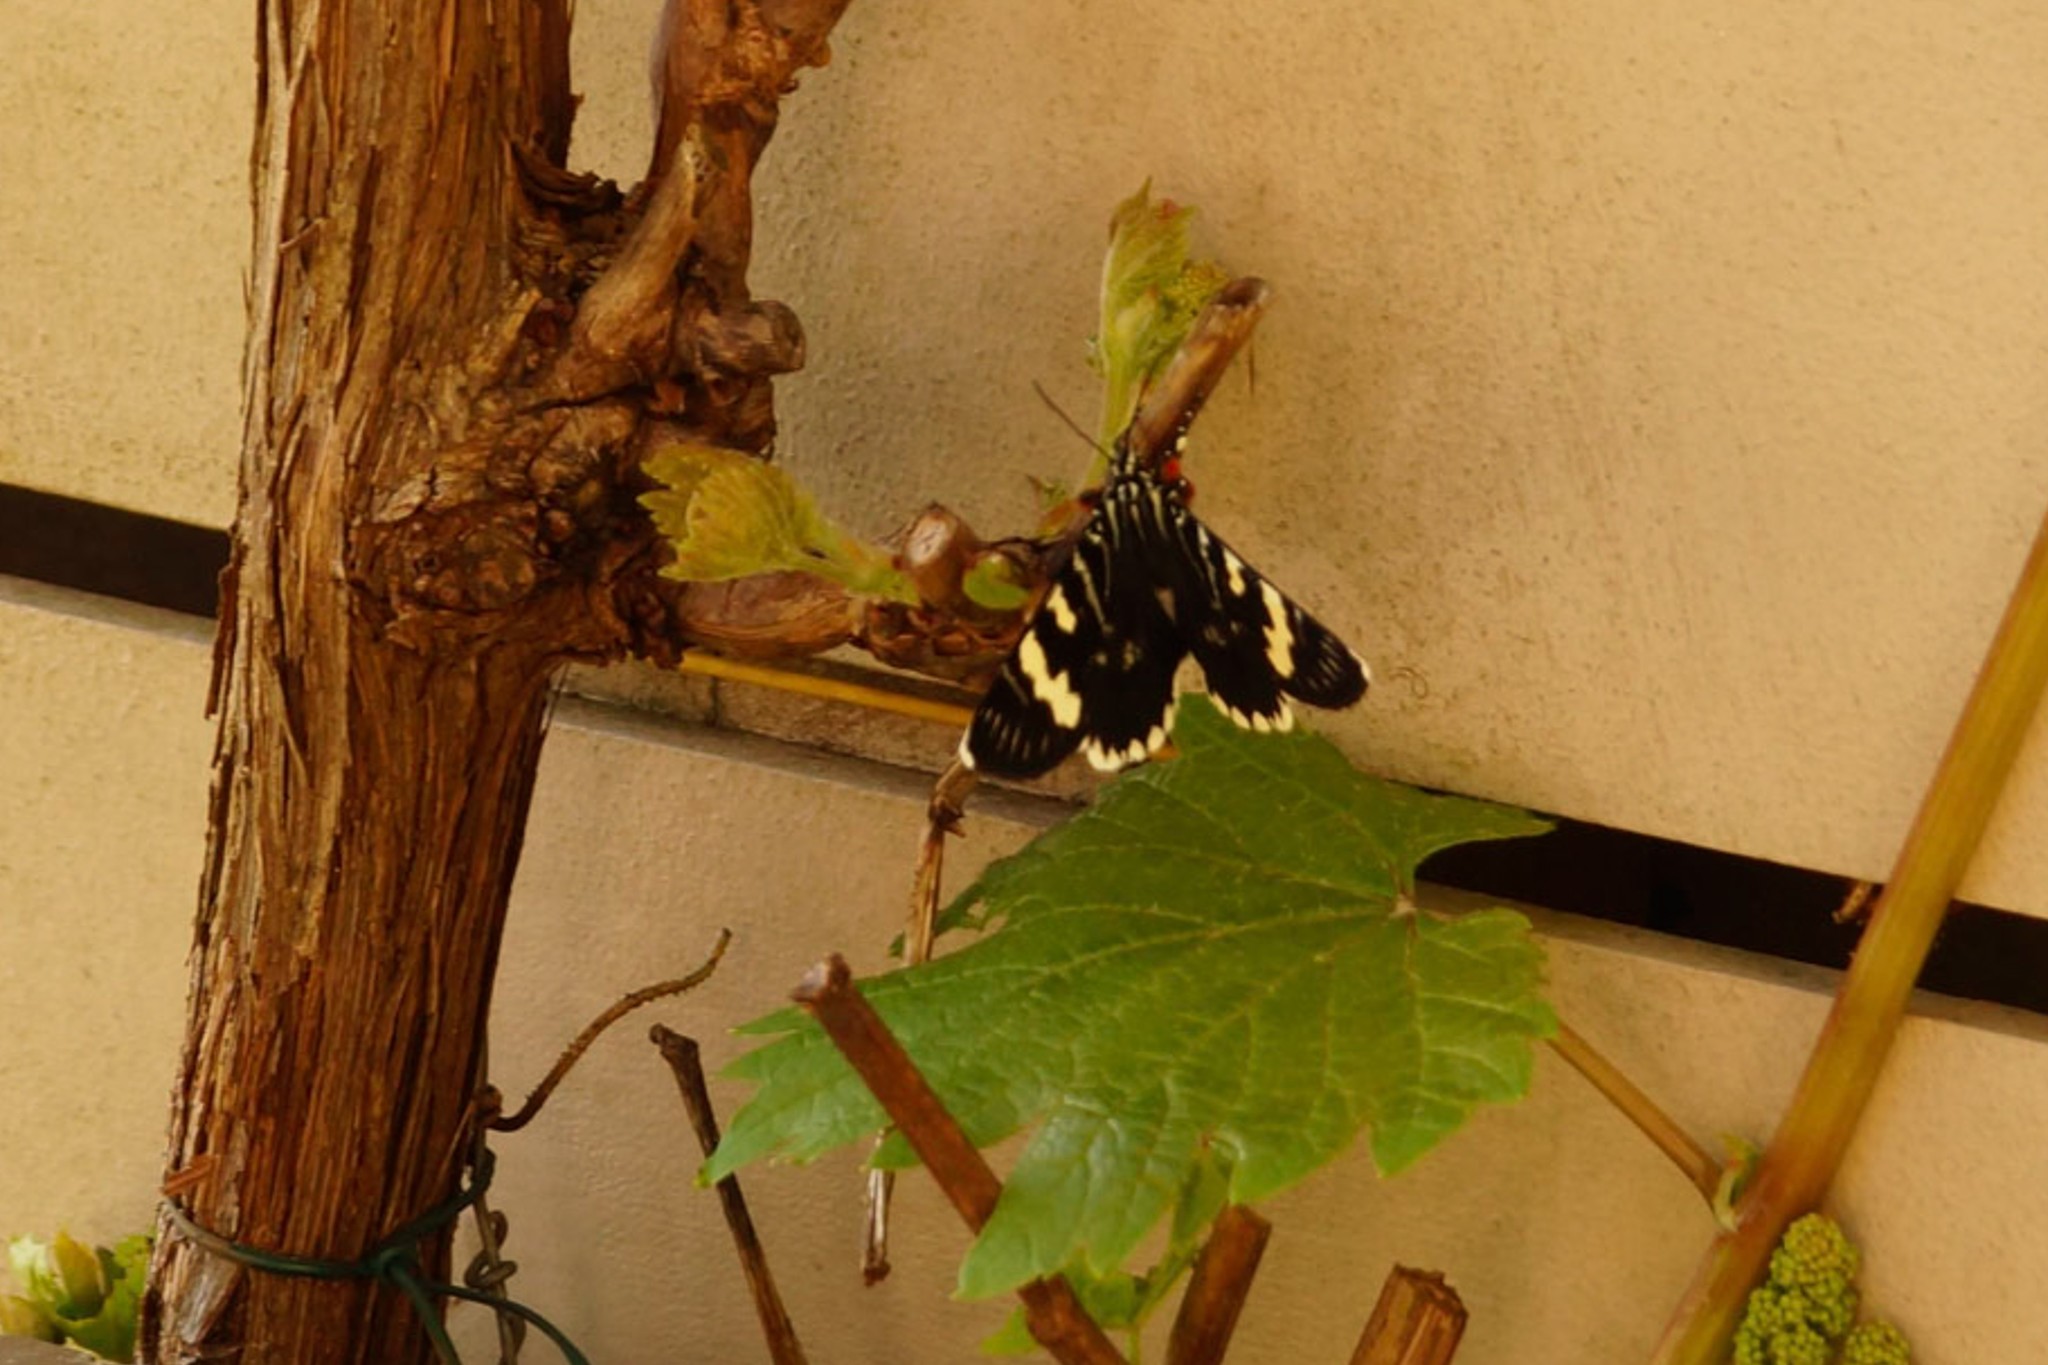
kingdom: Animalia
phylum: Arthropoda
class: Insecta
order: Lepidoptera
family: Noctuidae
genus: Phalaenoides
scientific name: Phalaenoides glycinae
